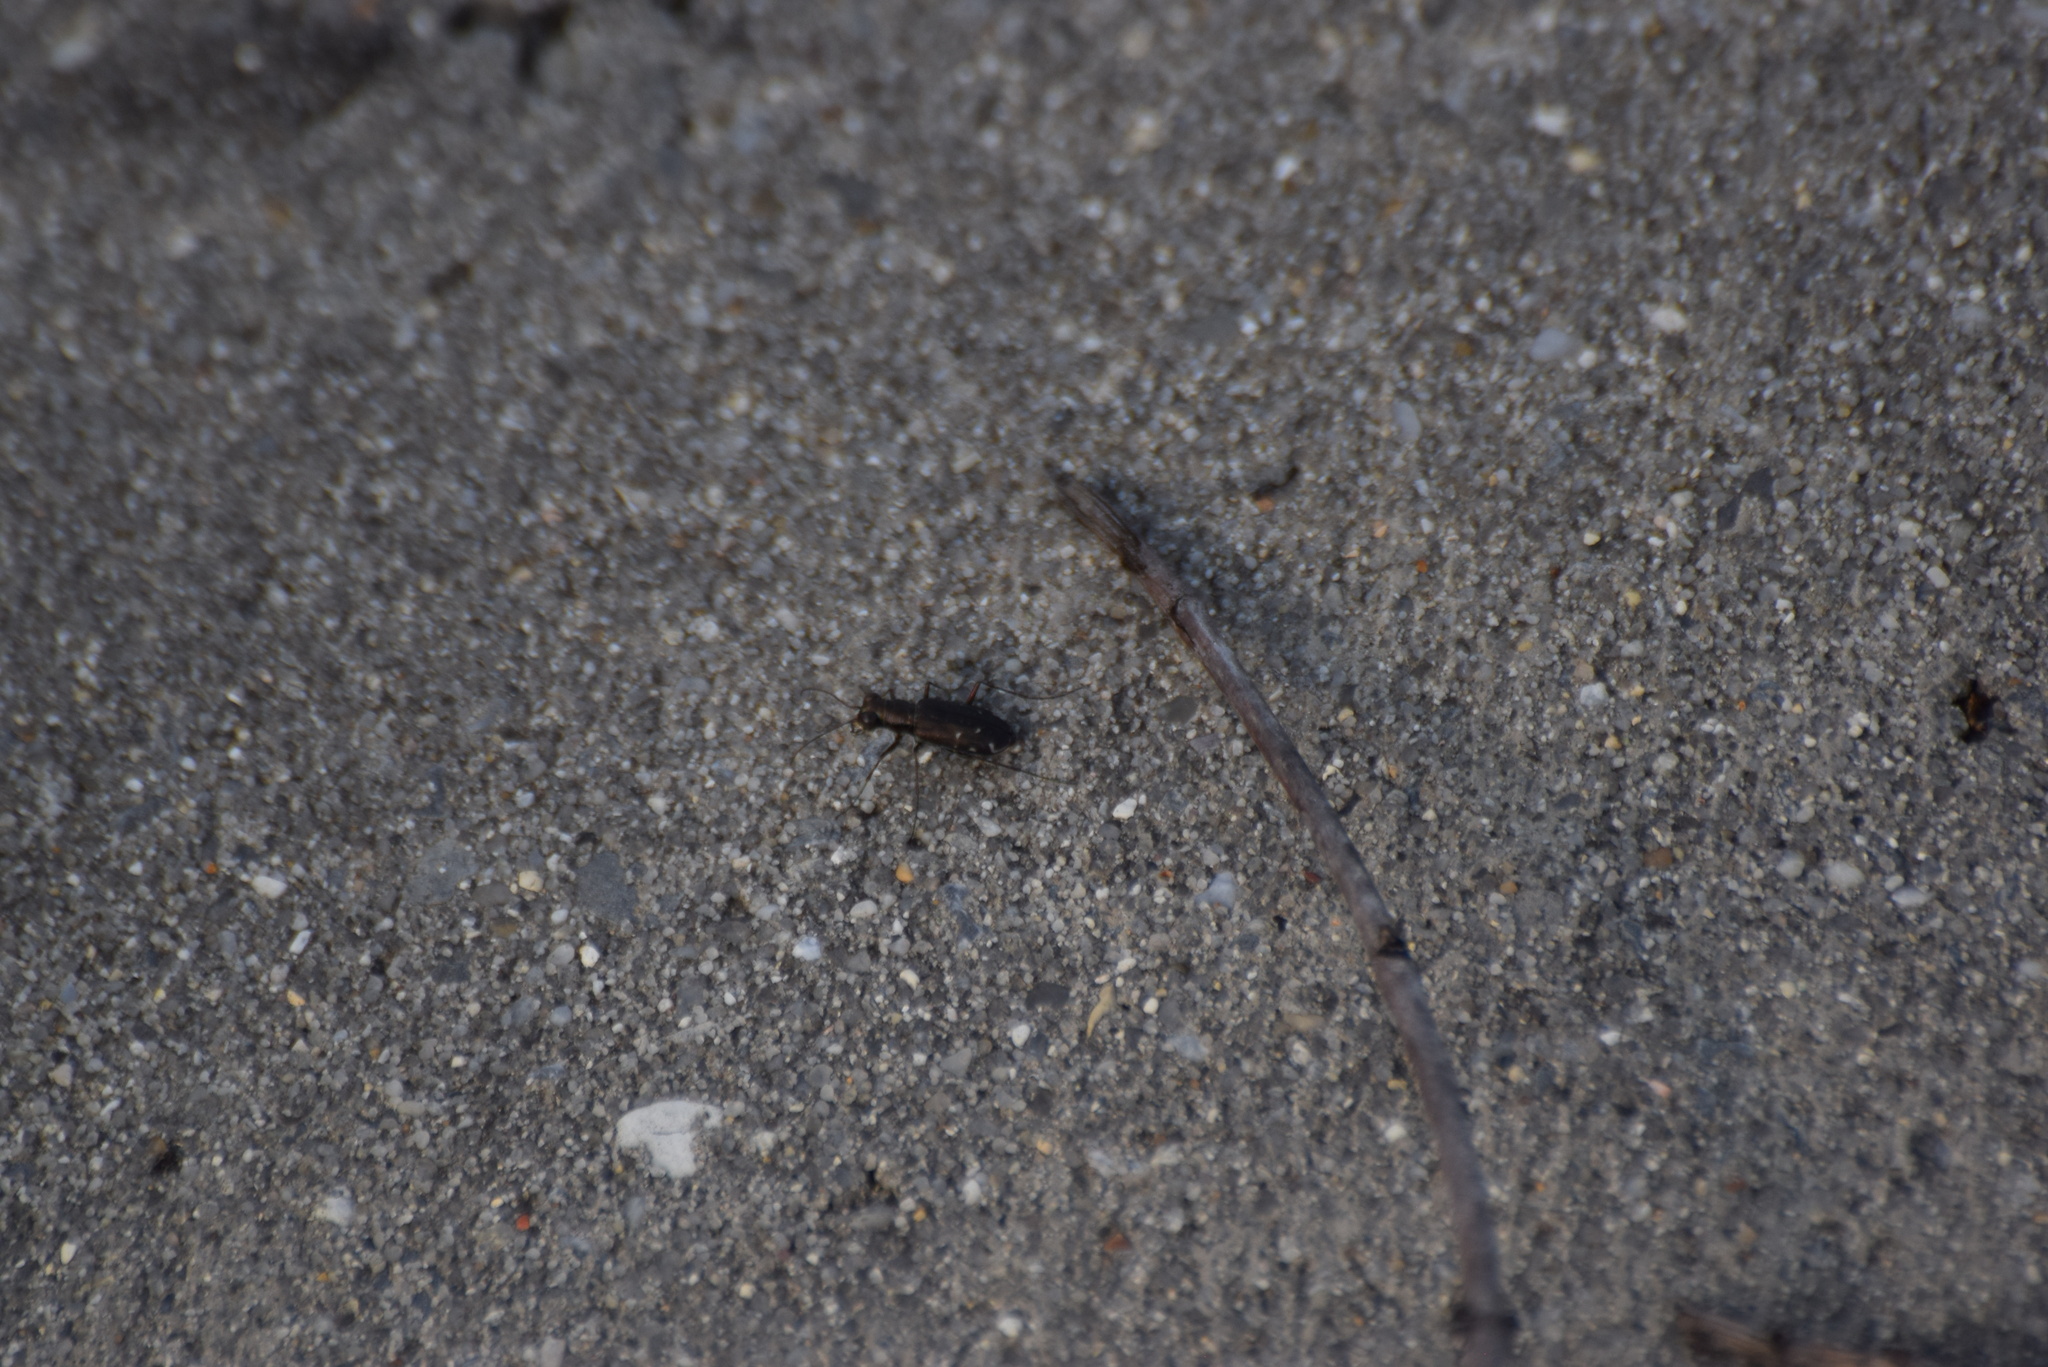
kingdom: Animalia
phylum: Arthropoda
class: Insecta
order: Coleoptera
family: Carabidae
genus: Cicindela
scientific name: Cicindela punctulata
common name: Punctured tiger beetle
